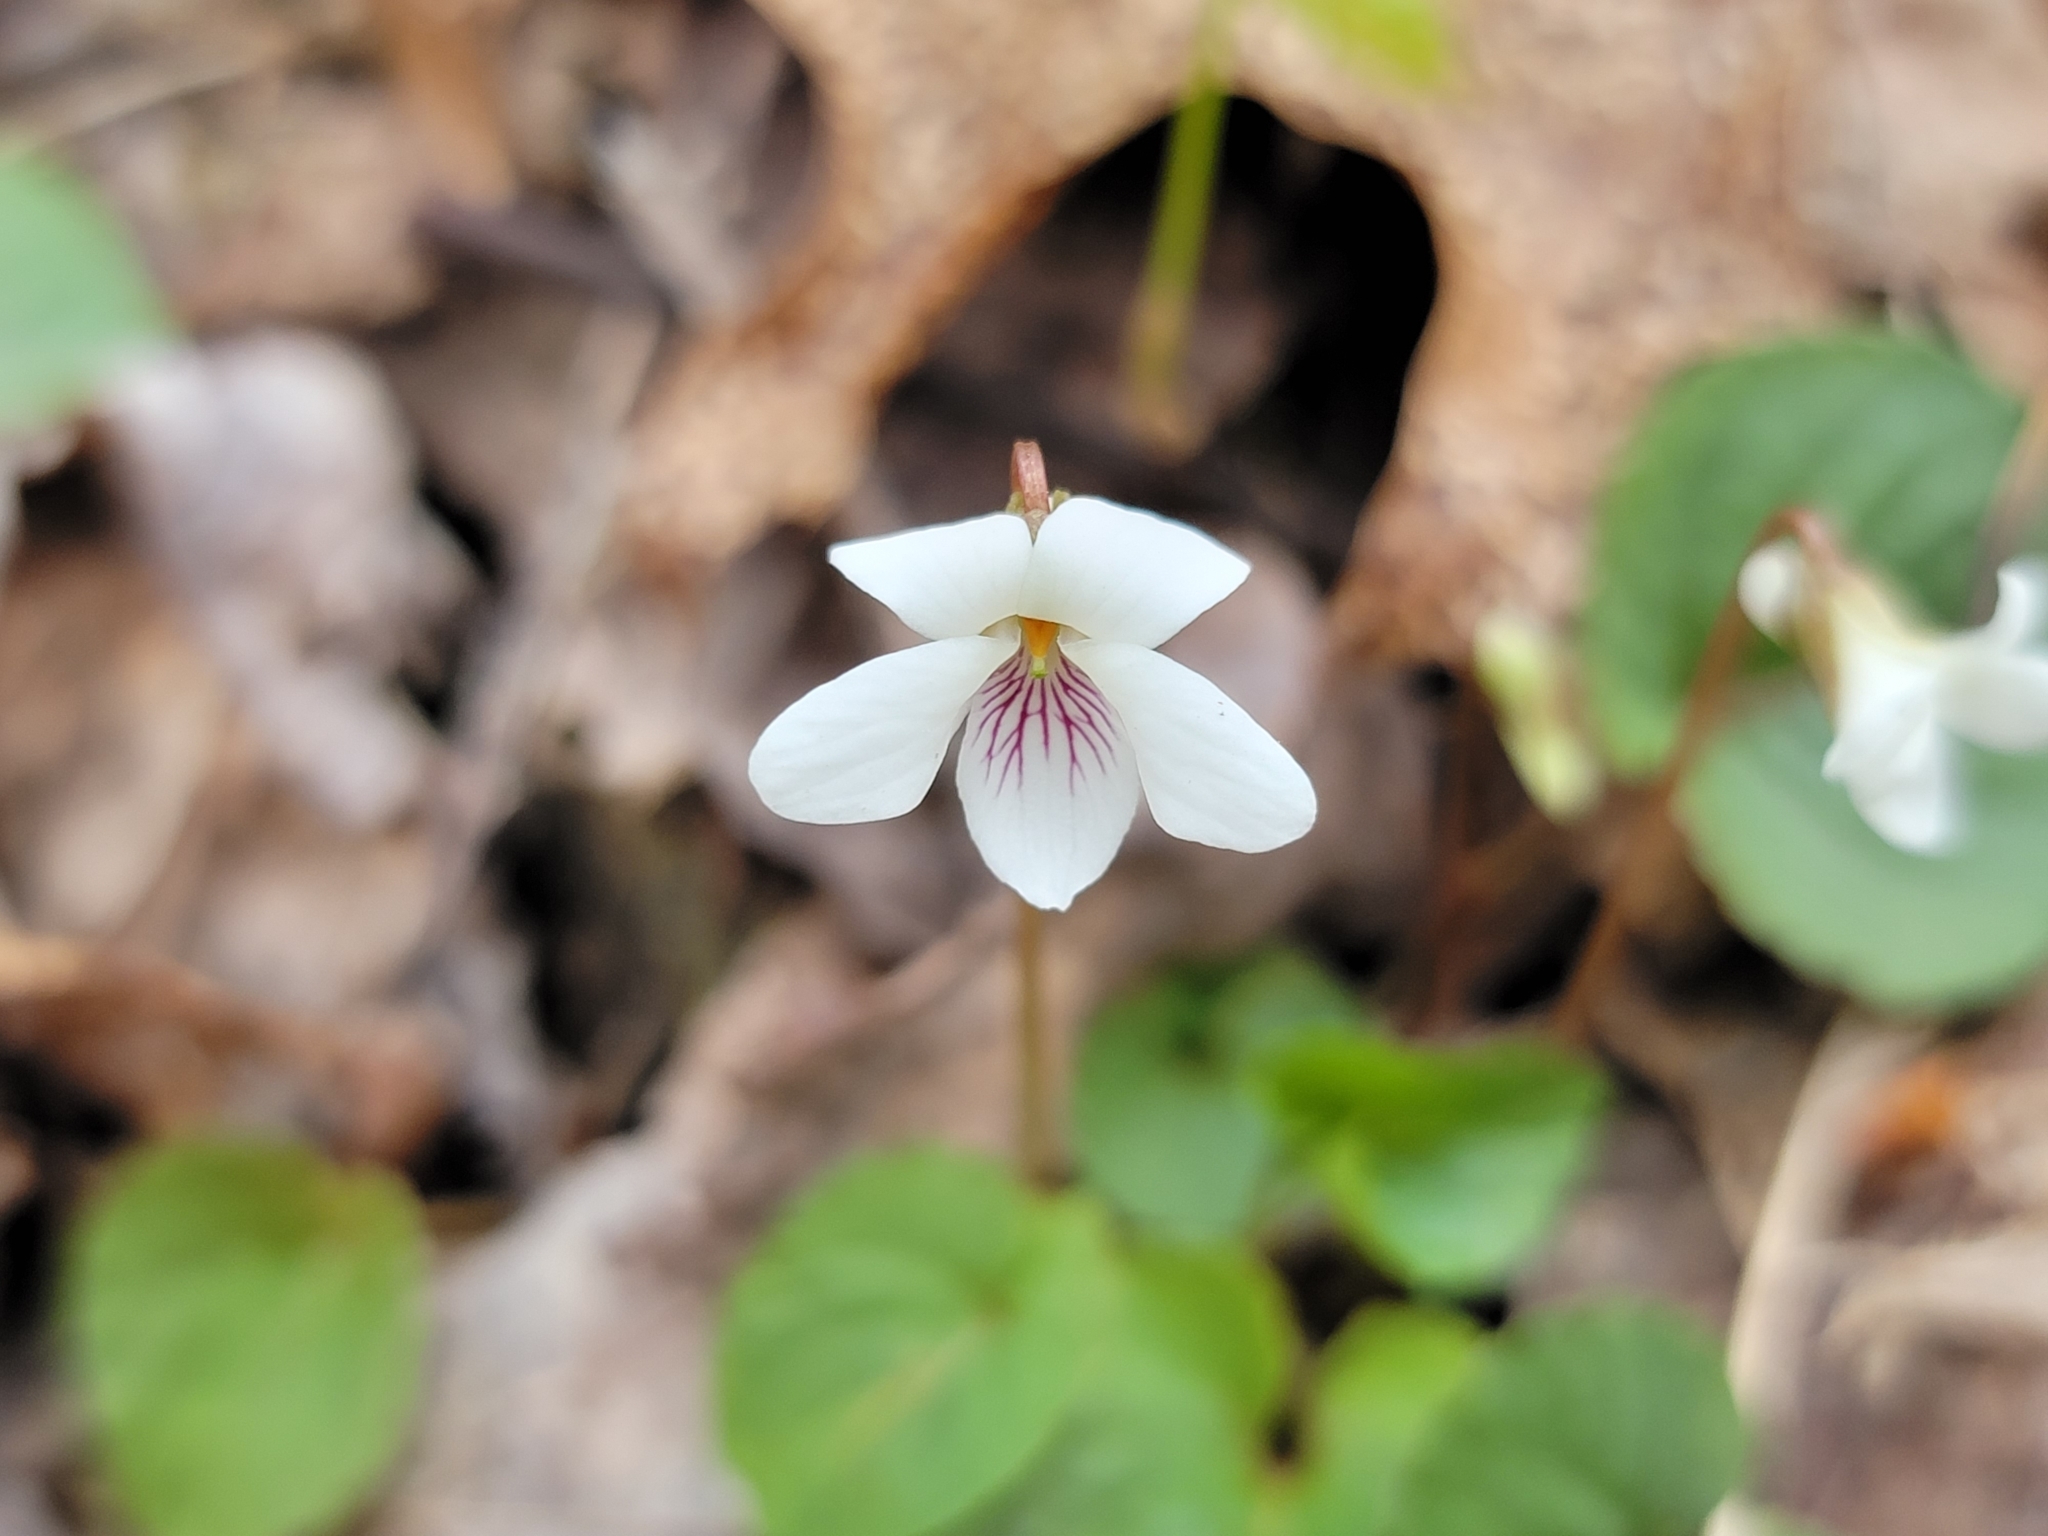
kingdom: Plantae
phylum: Tracheophyta
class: Magnoliopsida
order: Malpighiales
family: Violaceae
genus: Viola
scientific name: Viola blanda
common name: Sweet white violet
